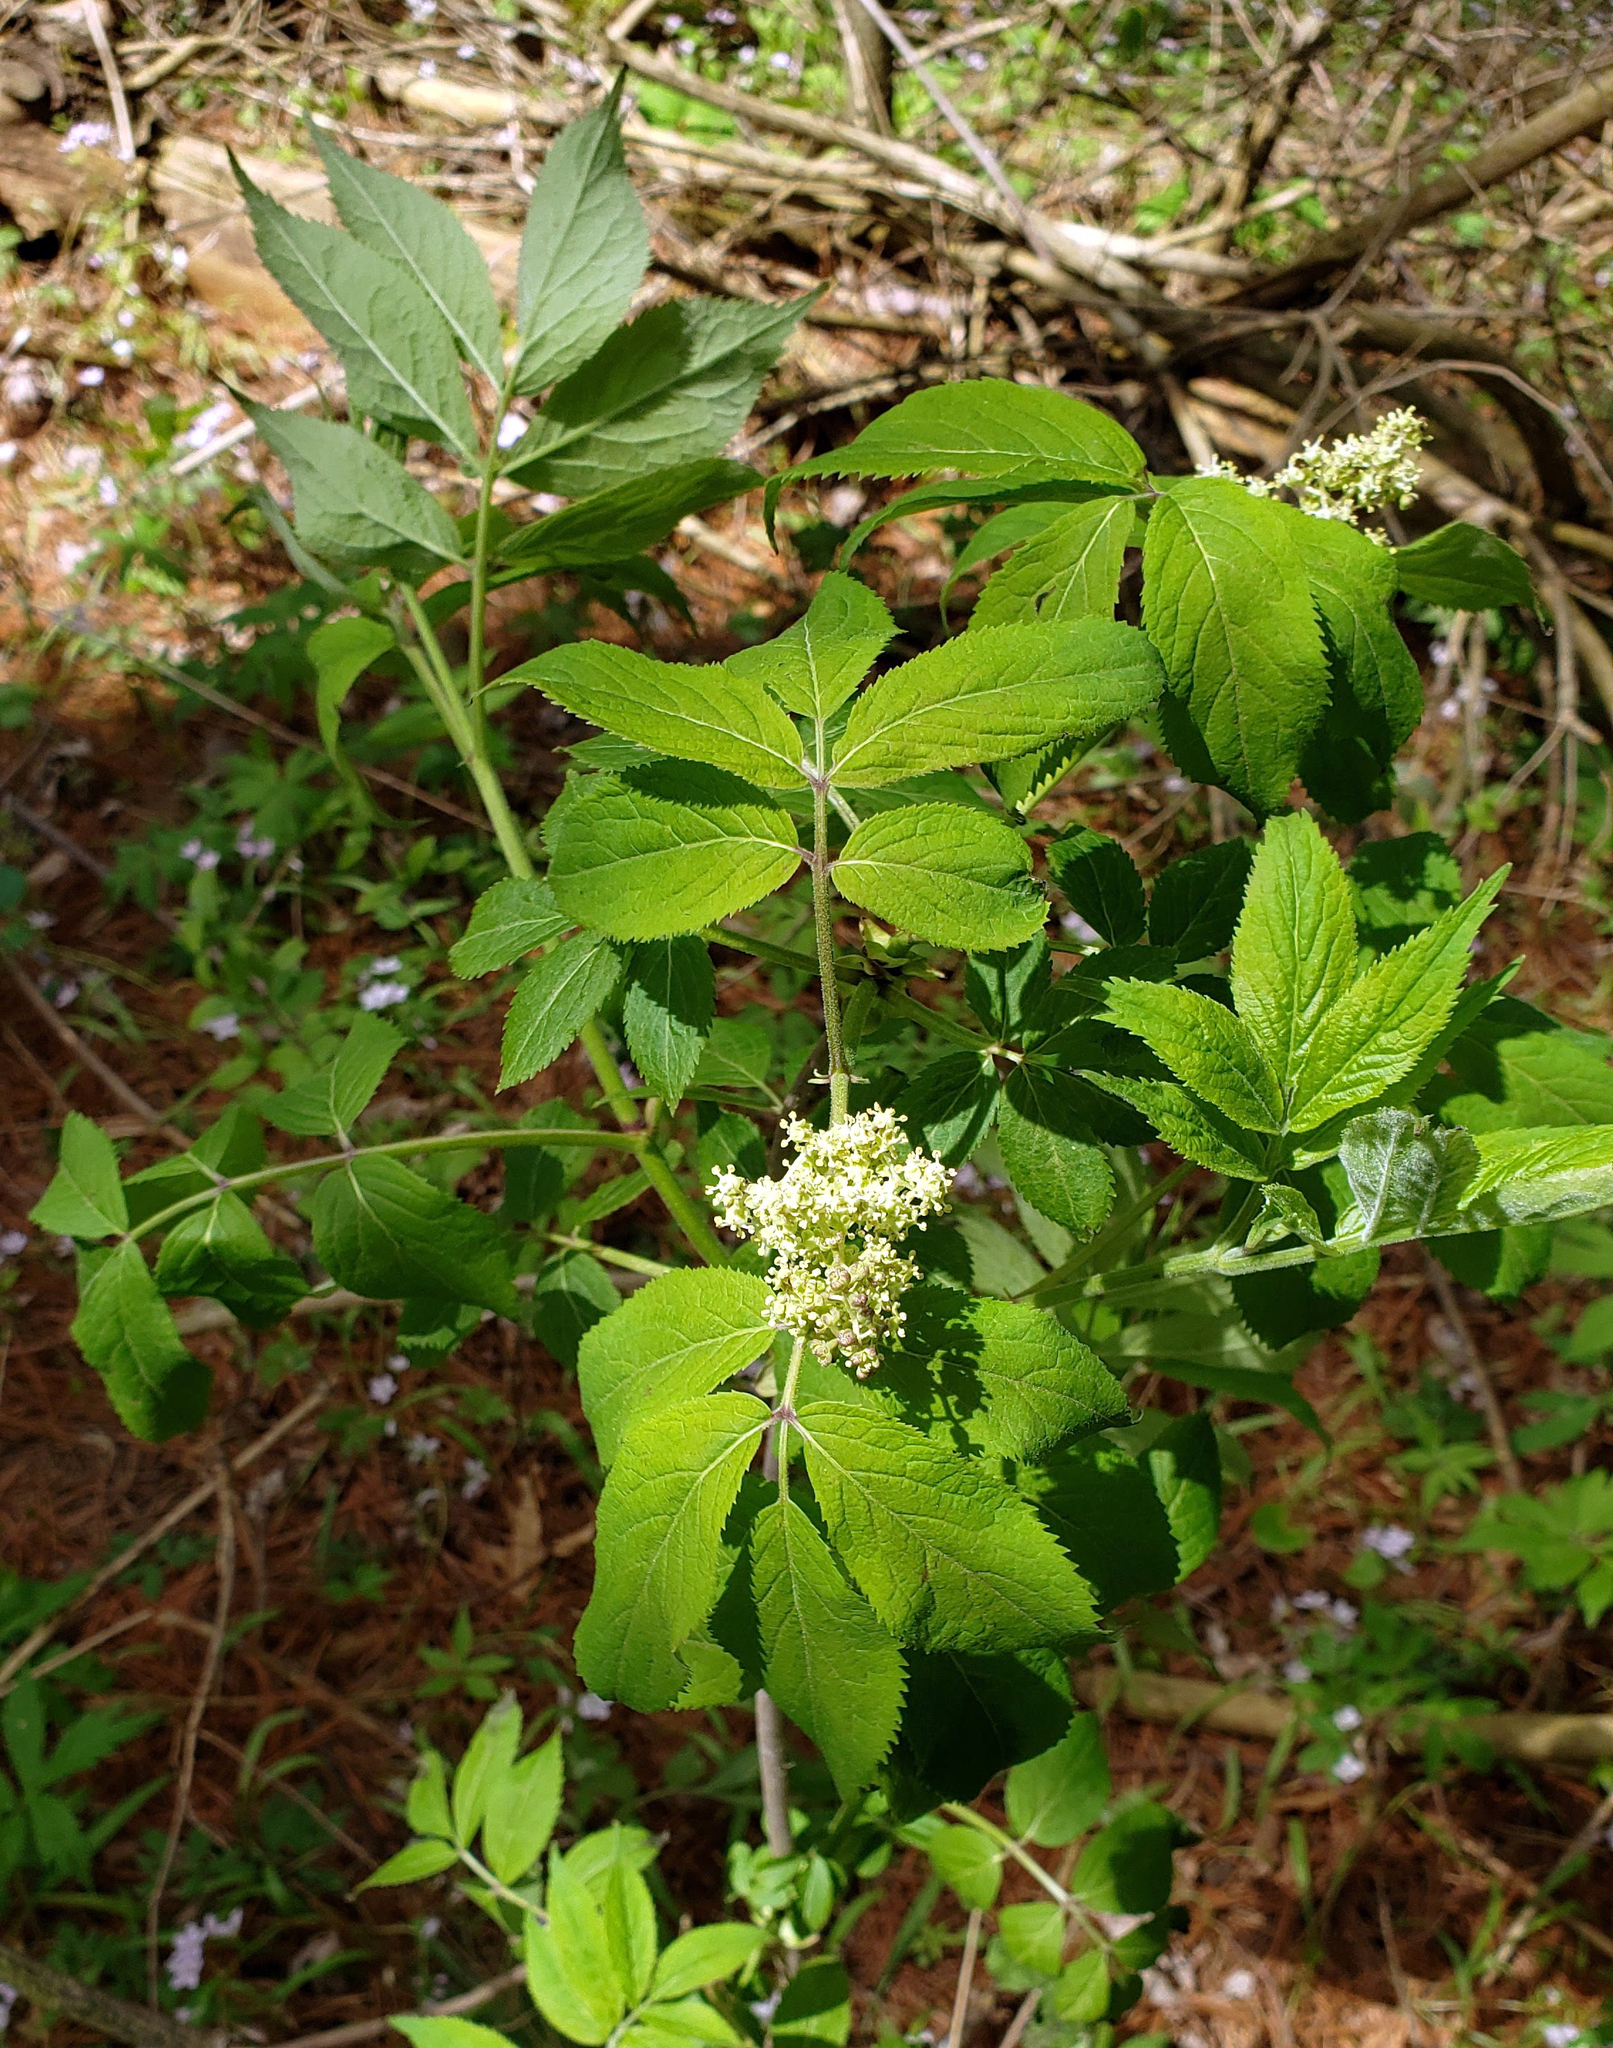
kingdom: Plantae
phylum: Tracheophyta
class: Magnoliopsida
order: Dipsacales
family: Viburnaceae
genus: Sambucus
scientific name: Sambucus racemosa
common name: Red-berried elder
